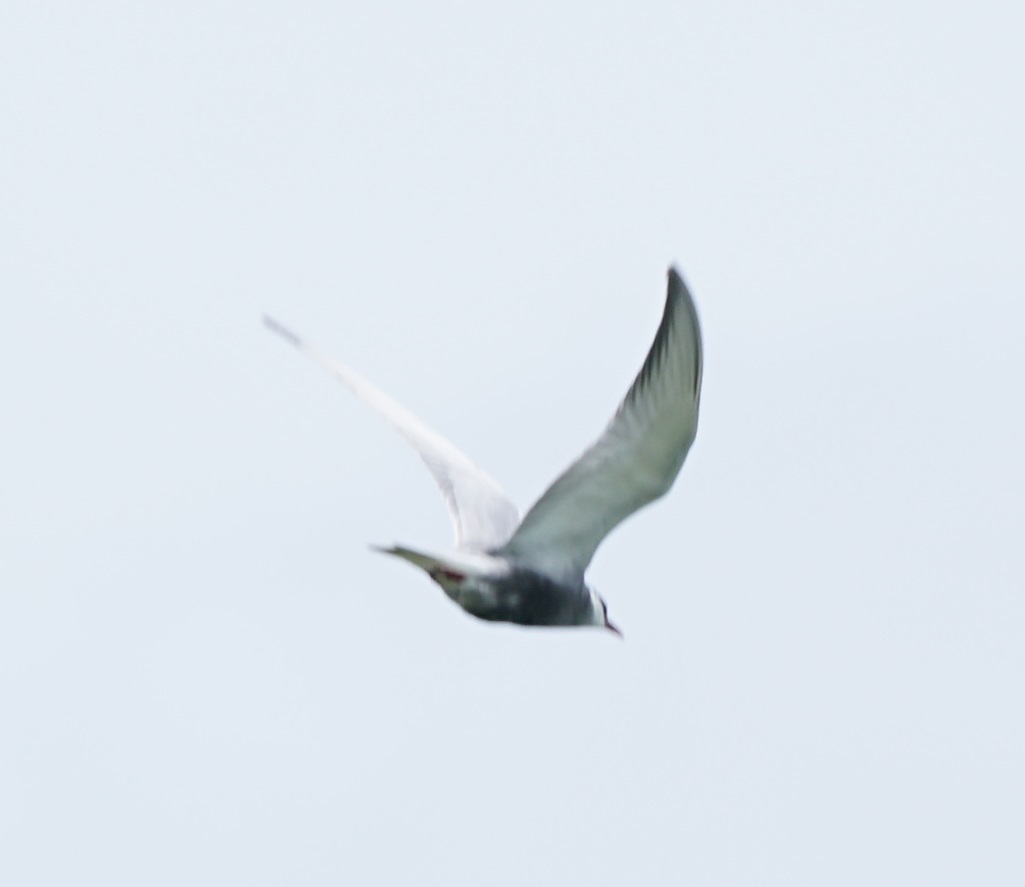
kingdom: Animalia
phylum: Chordata
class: Aves
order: Charadriiformes
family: Laridae
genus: Chlidonias
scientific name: Chlidonias hybrida
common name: Whiskered tern
